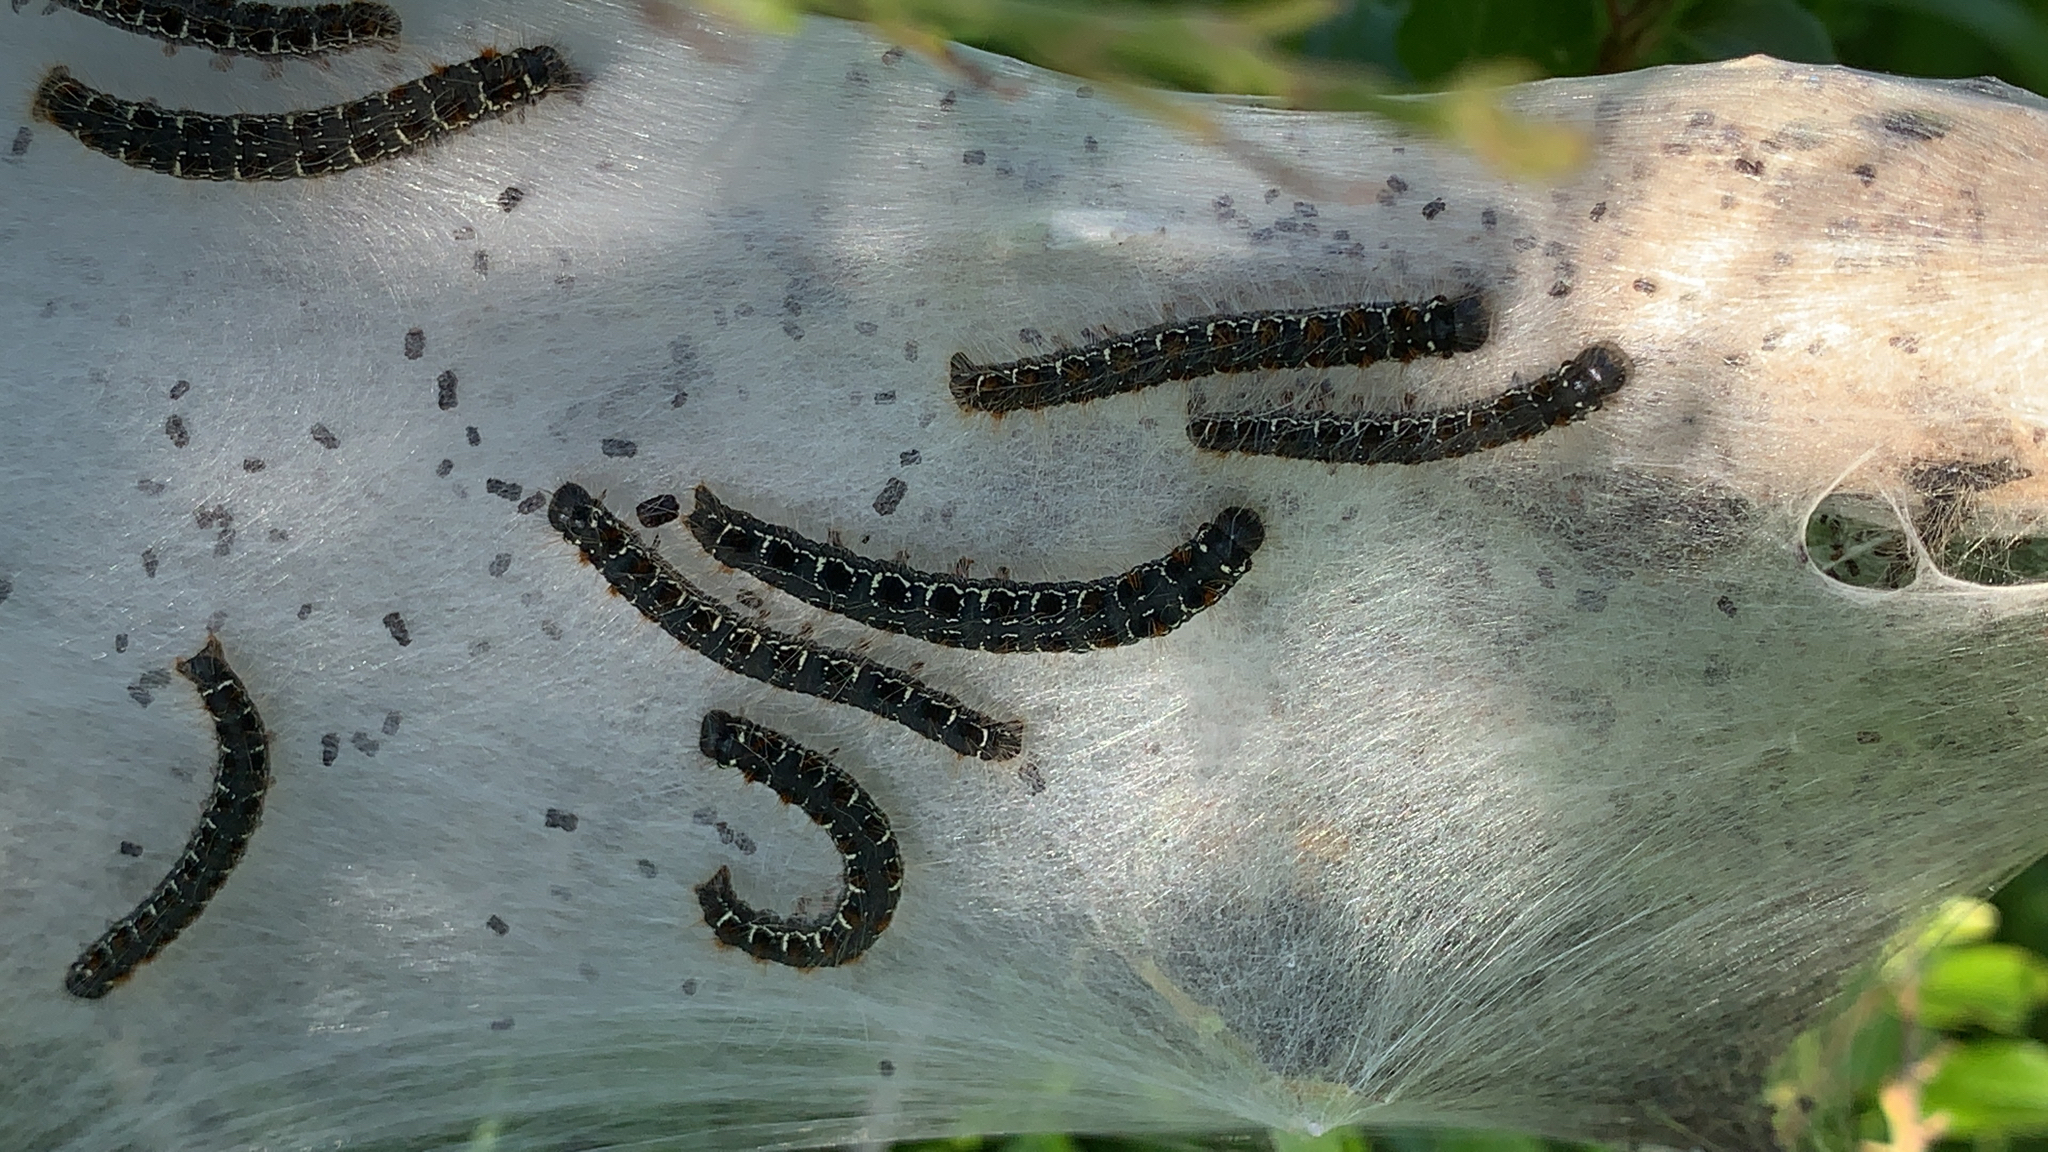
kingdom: Animalia
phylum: Arthropoda
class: Insecta
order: Lepidoptera
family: Lasiocampidae
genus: Eriogaster
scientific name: Eriogaster lanestris
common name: Small eggar
